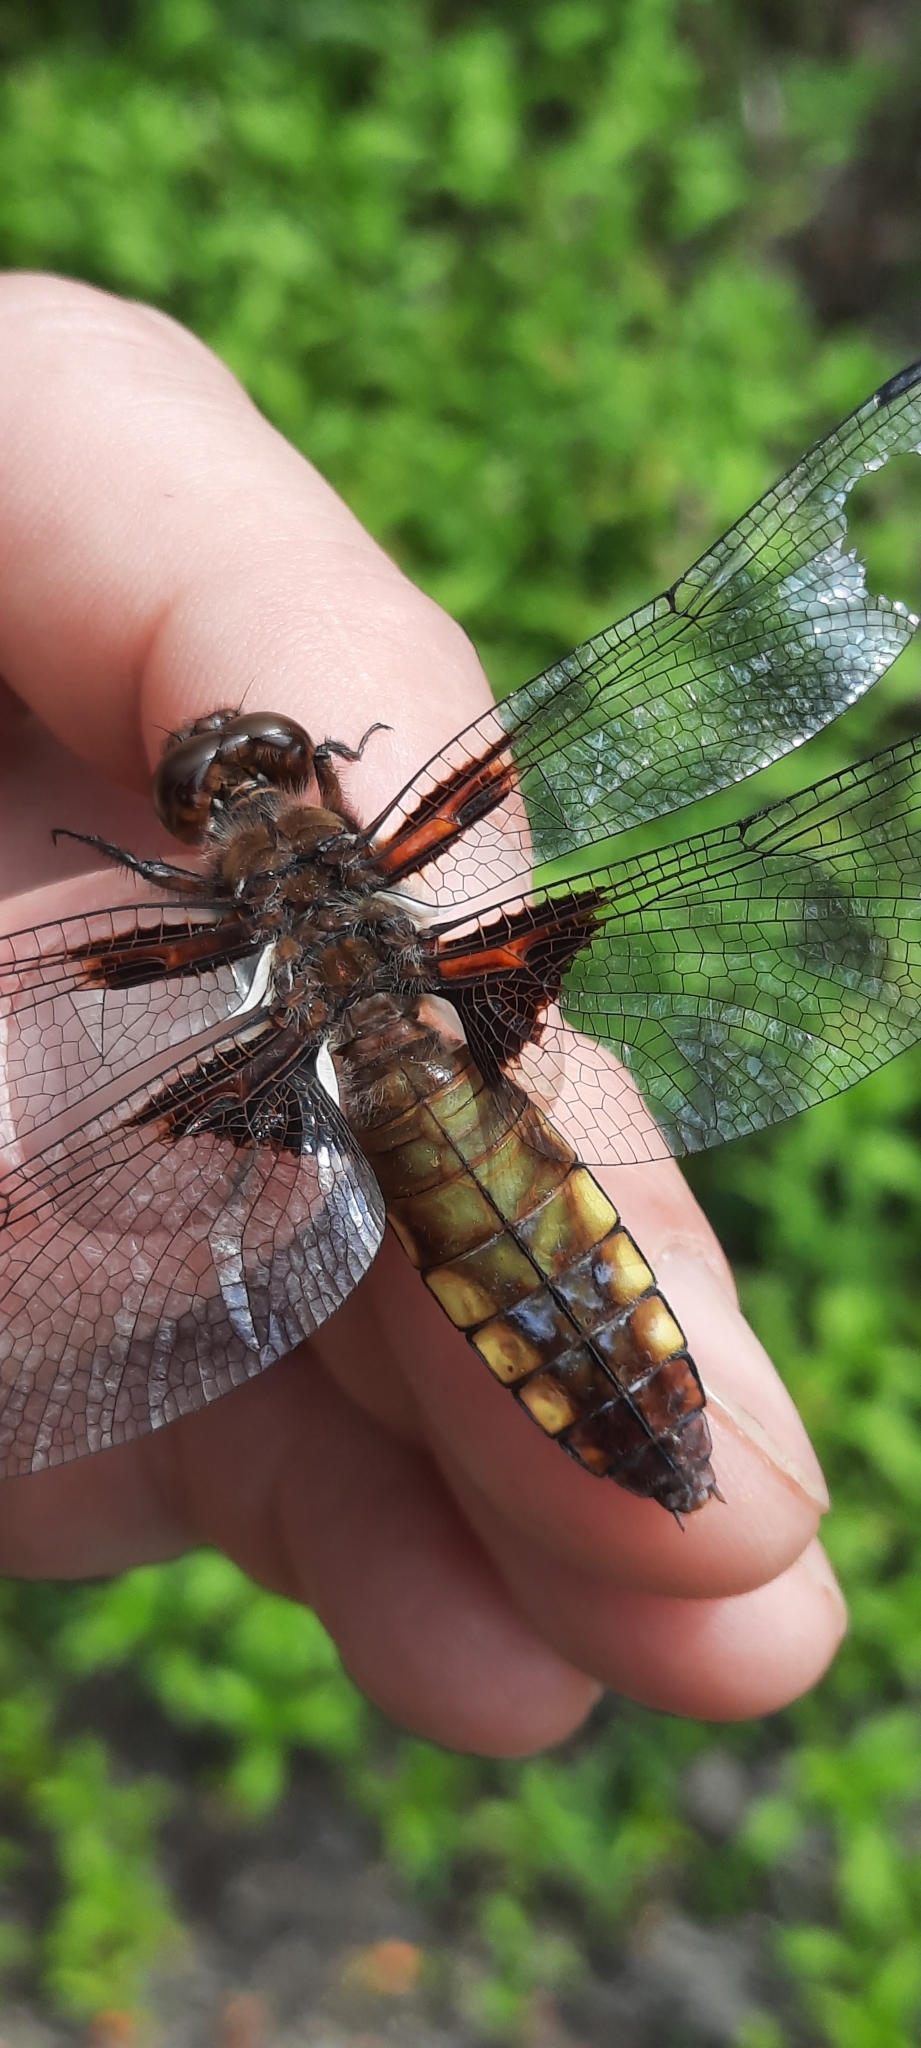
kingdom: Animalia
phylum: Arthropoda
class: Insecta
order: Odonata
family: Libellulidae
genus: Libellula
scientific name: Libellula depressa
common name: Broad-bodied chaser
